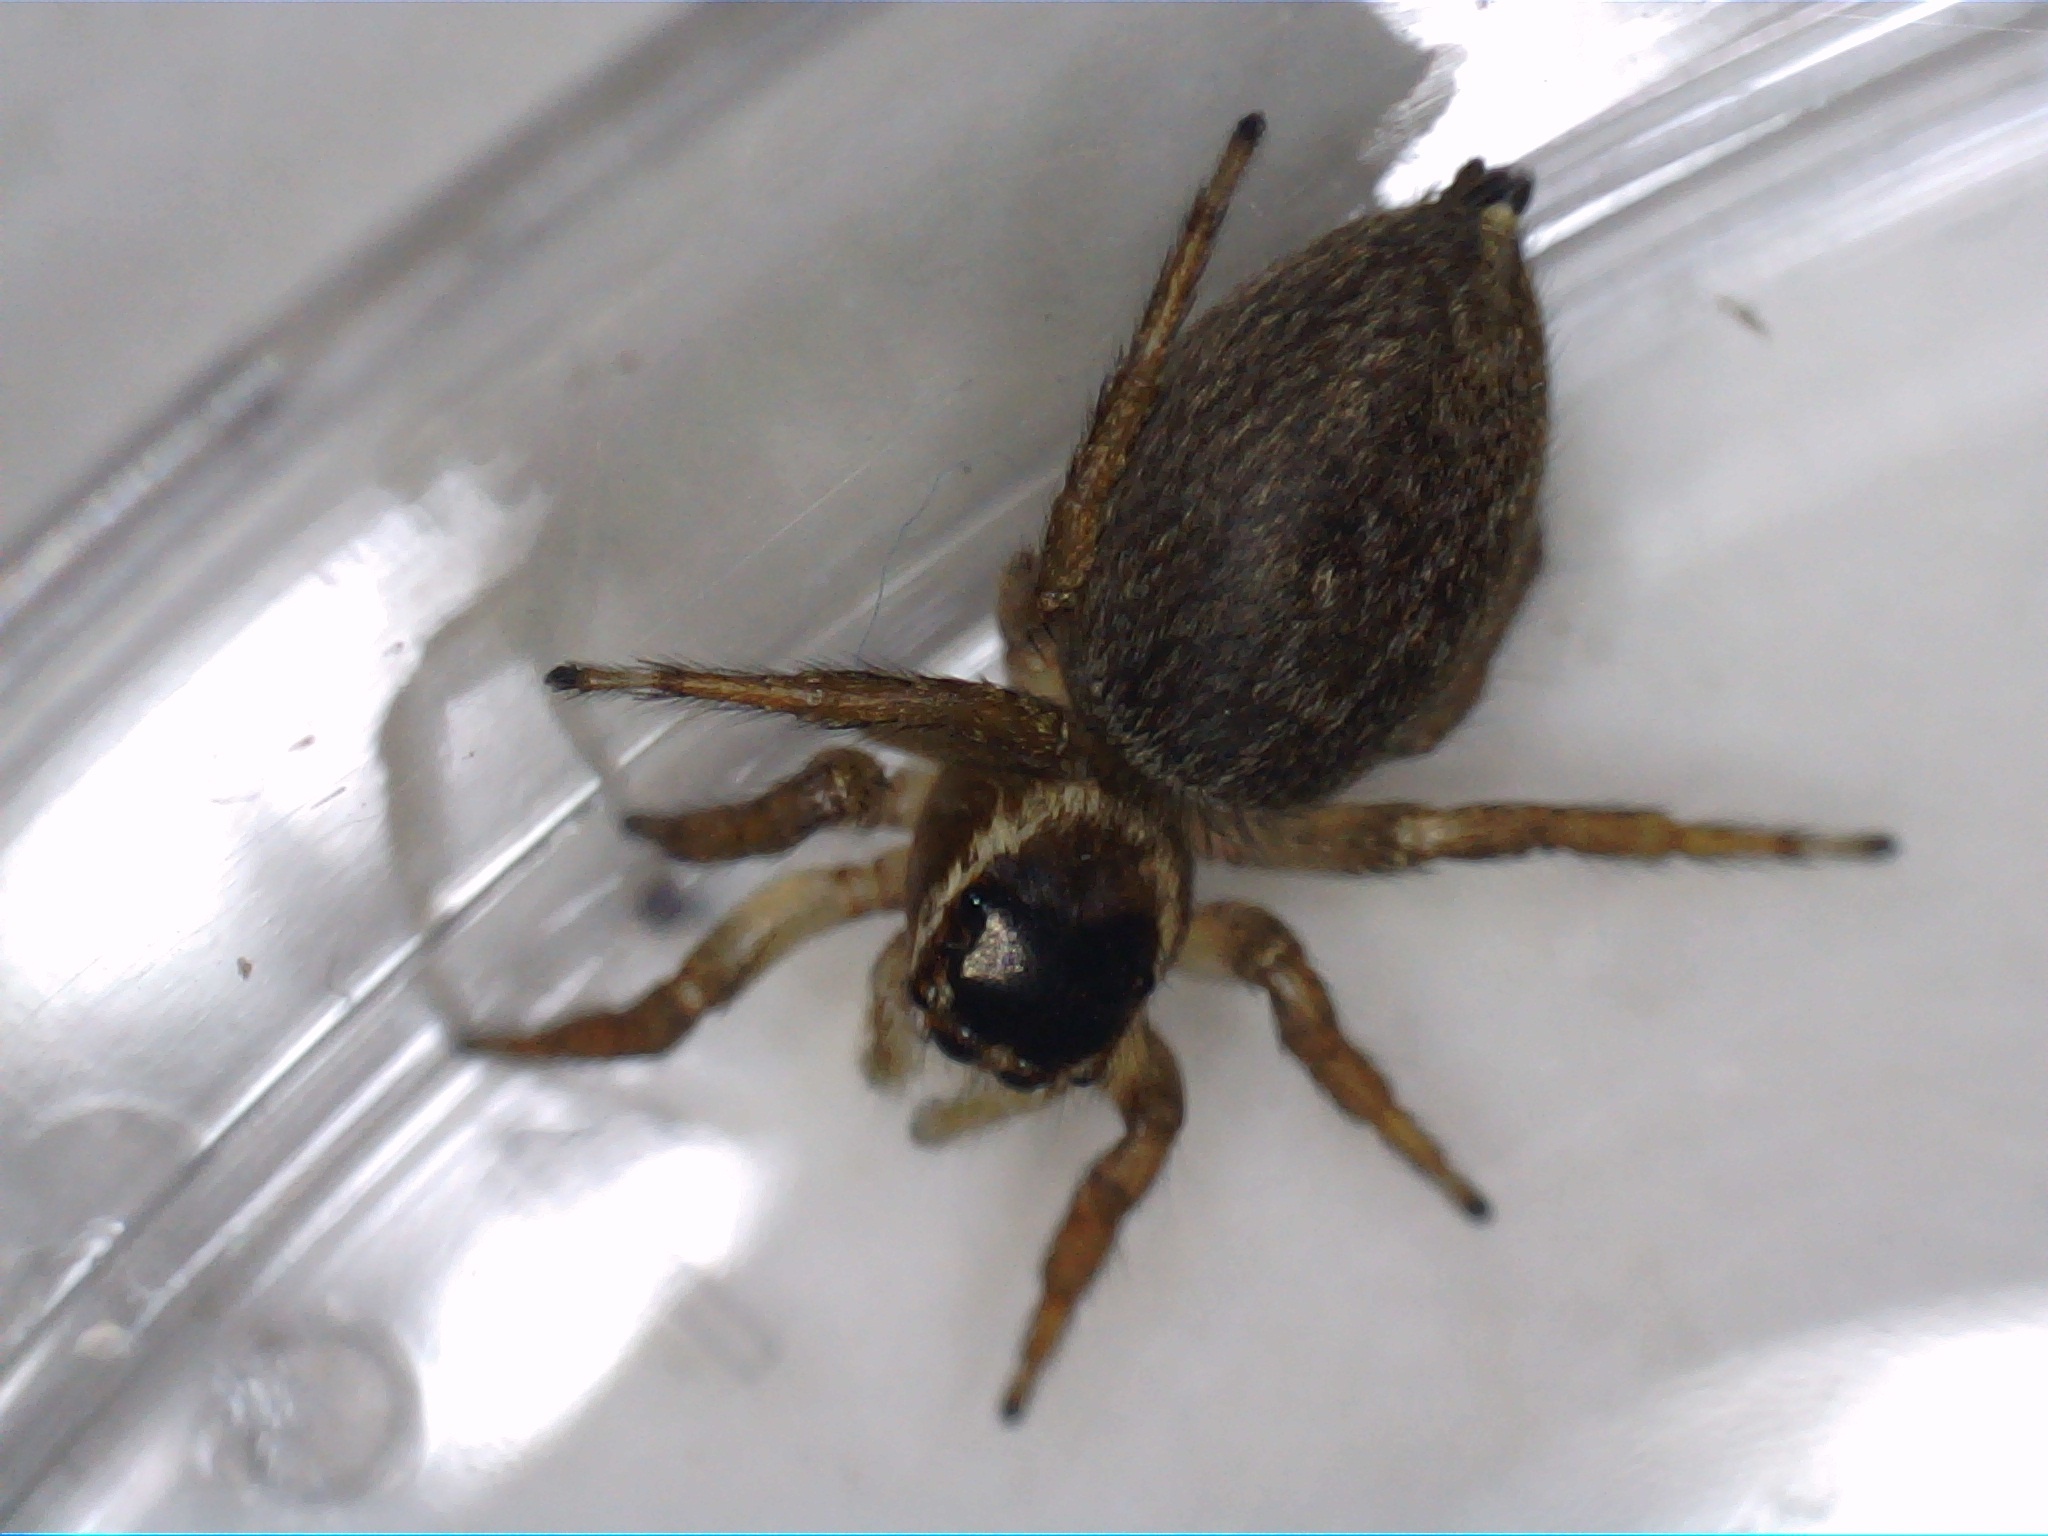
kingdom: Animalia
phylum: Arthropoda
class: Arachnida
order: Araneae
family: Salticidae
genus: Maratus
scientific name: Maratus griseus
